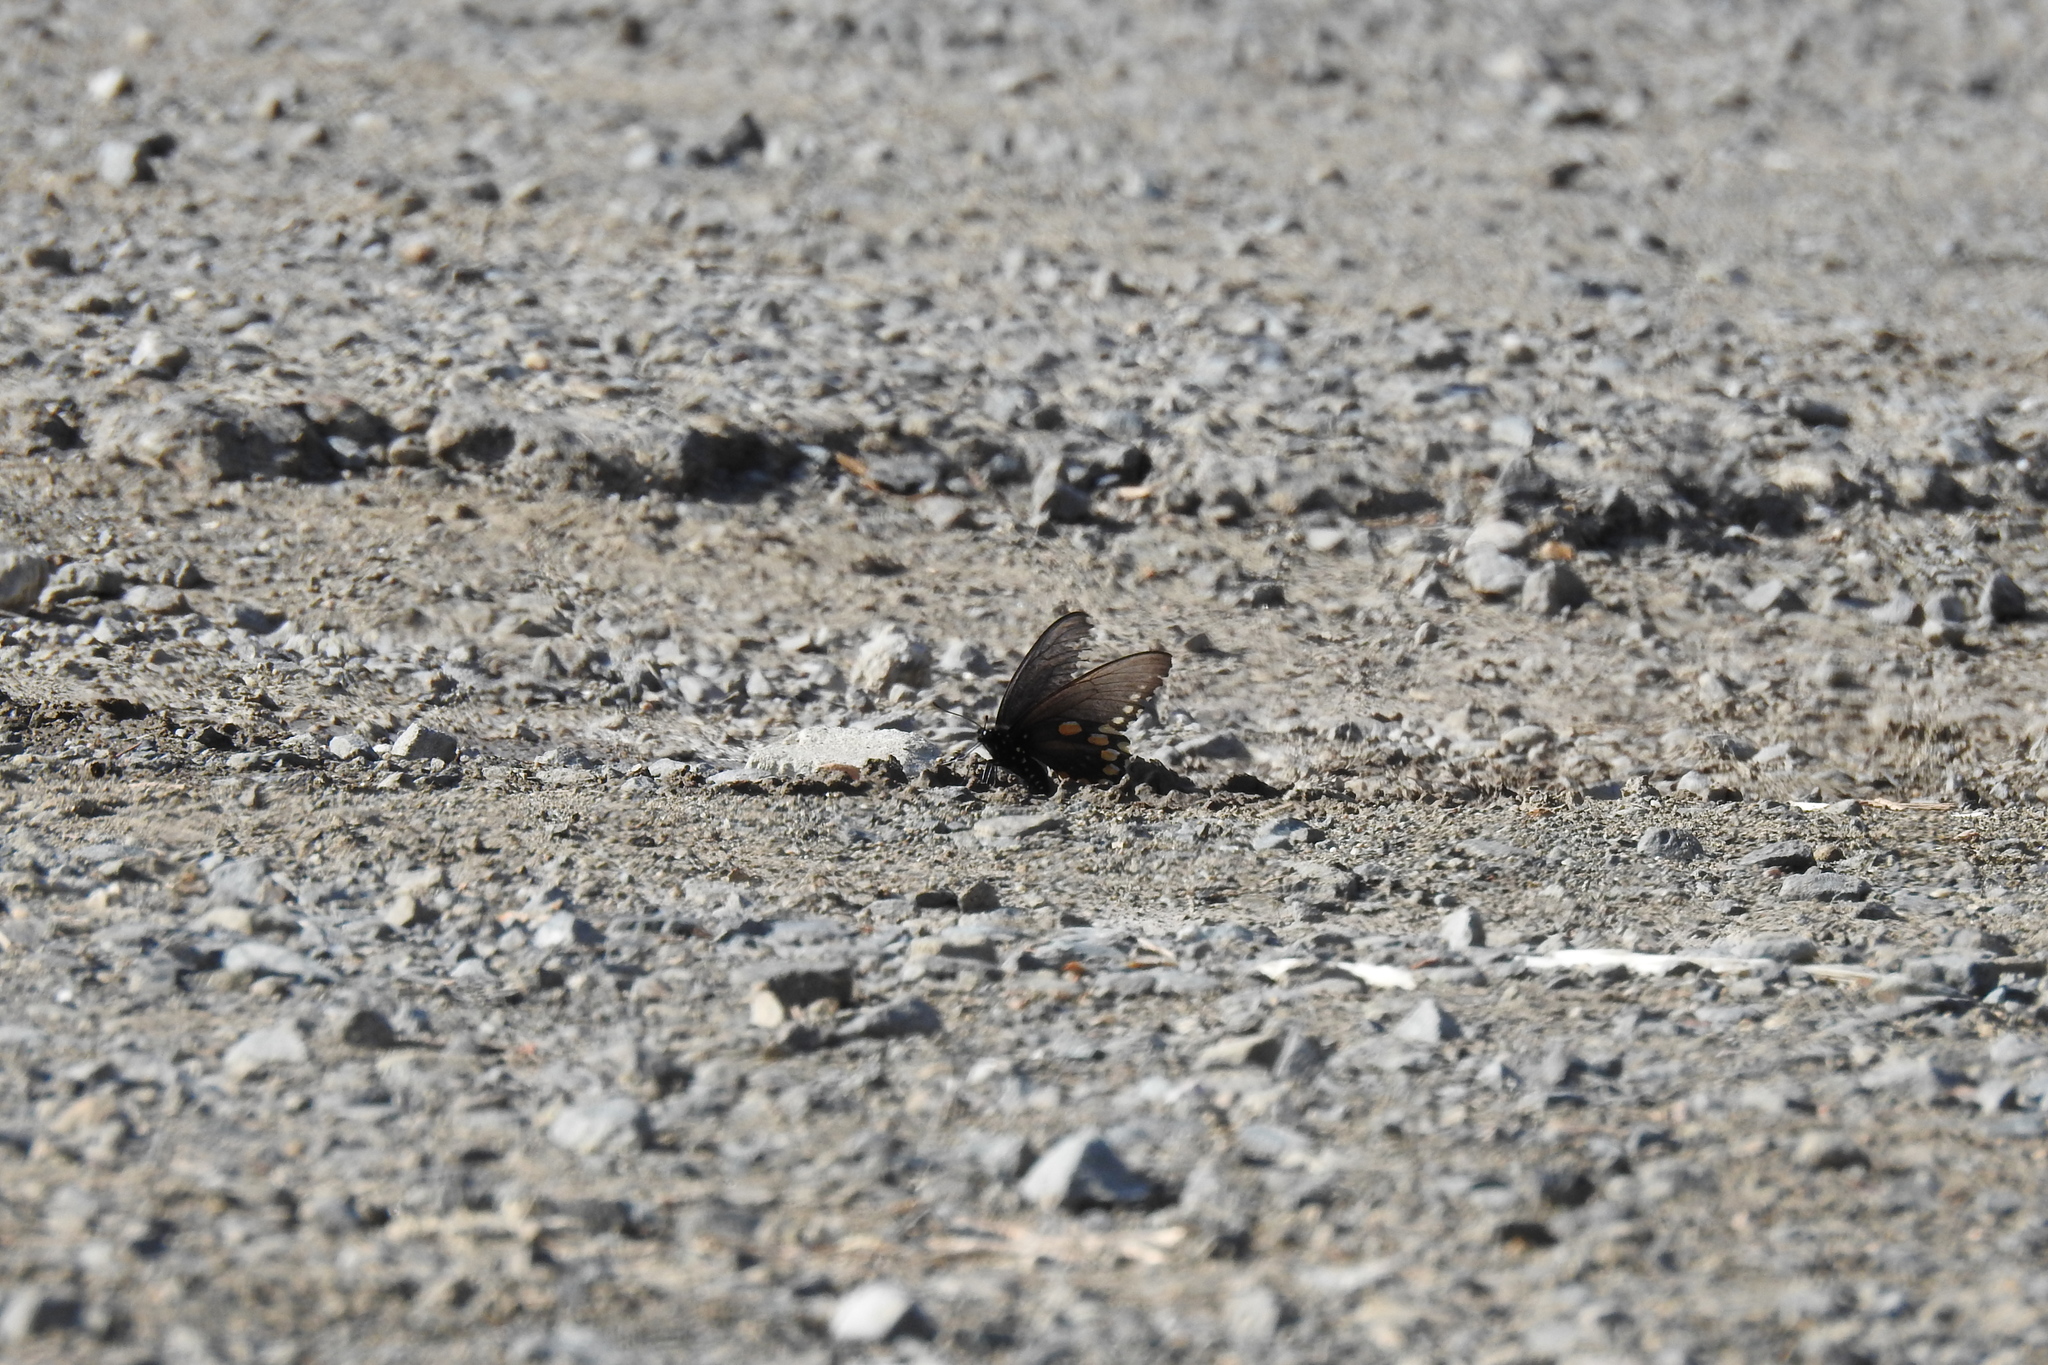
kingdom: Animalia
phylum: Arthropoda
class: Insecta
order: Lepidoptera
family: Papilionidae
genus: Battus
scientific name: Battus philenor
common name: Pipevine swallowtail
